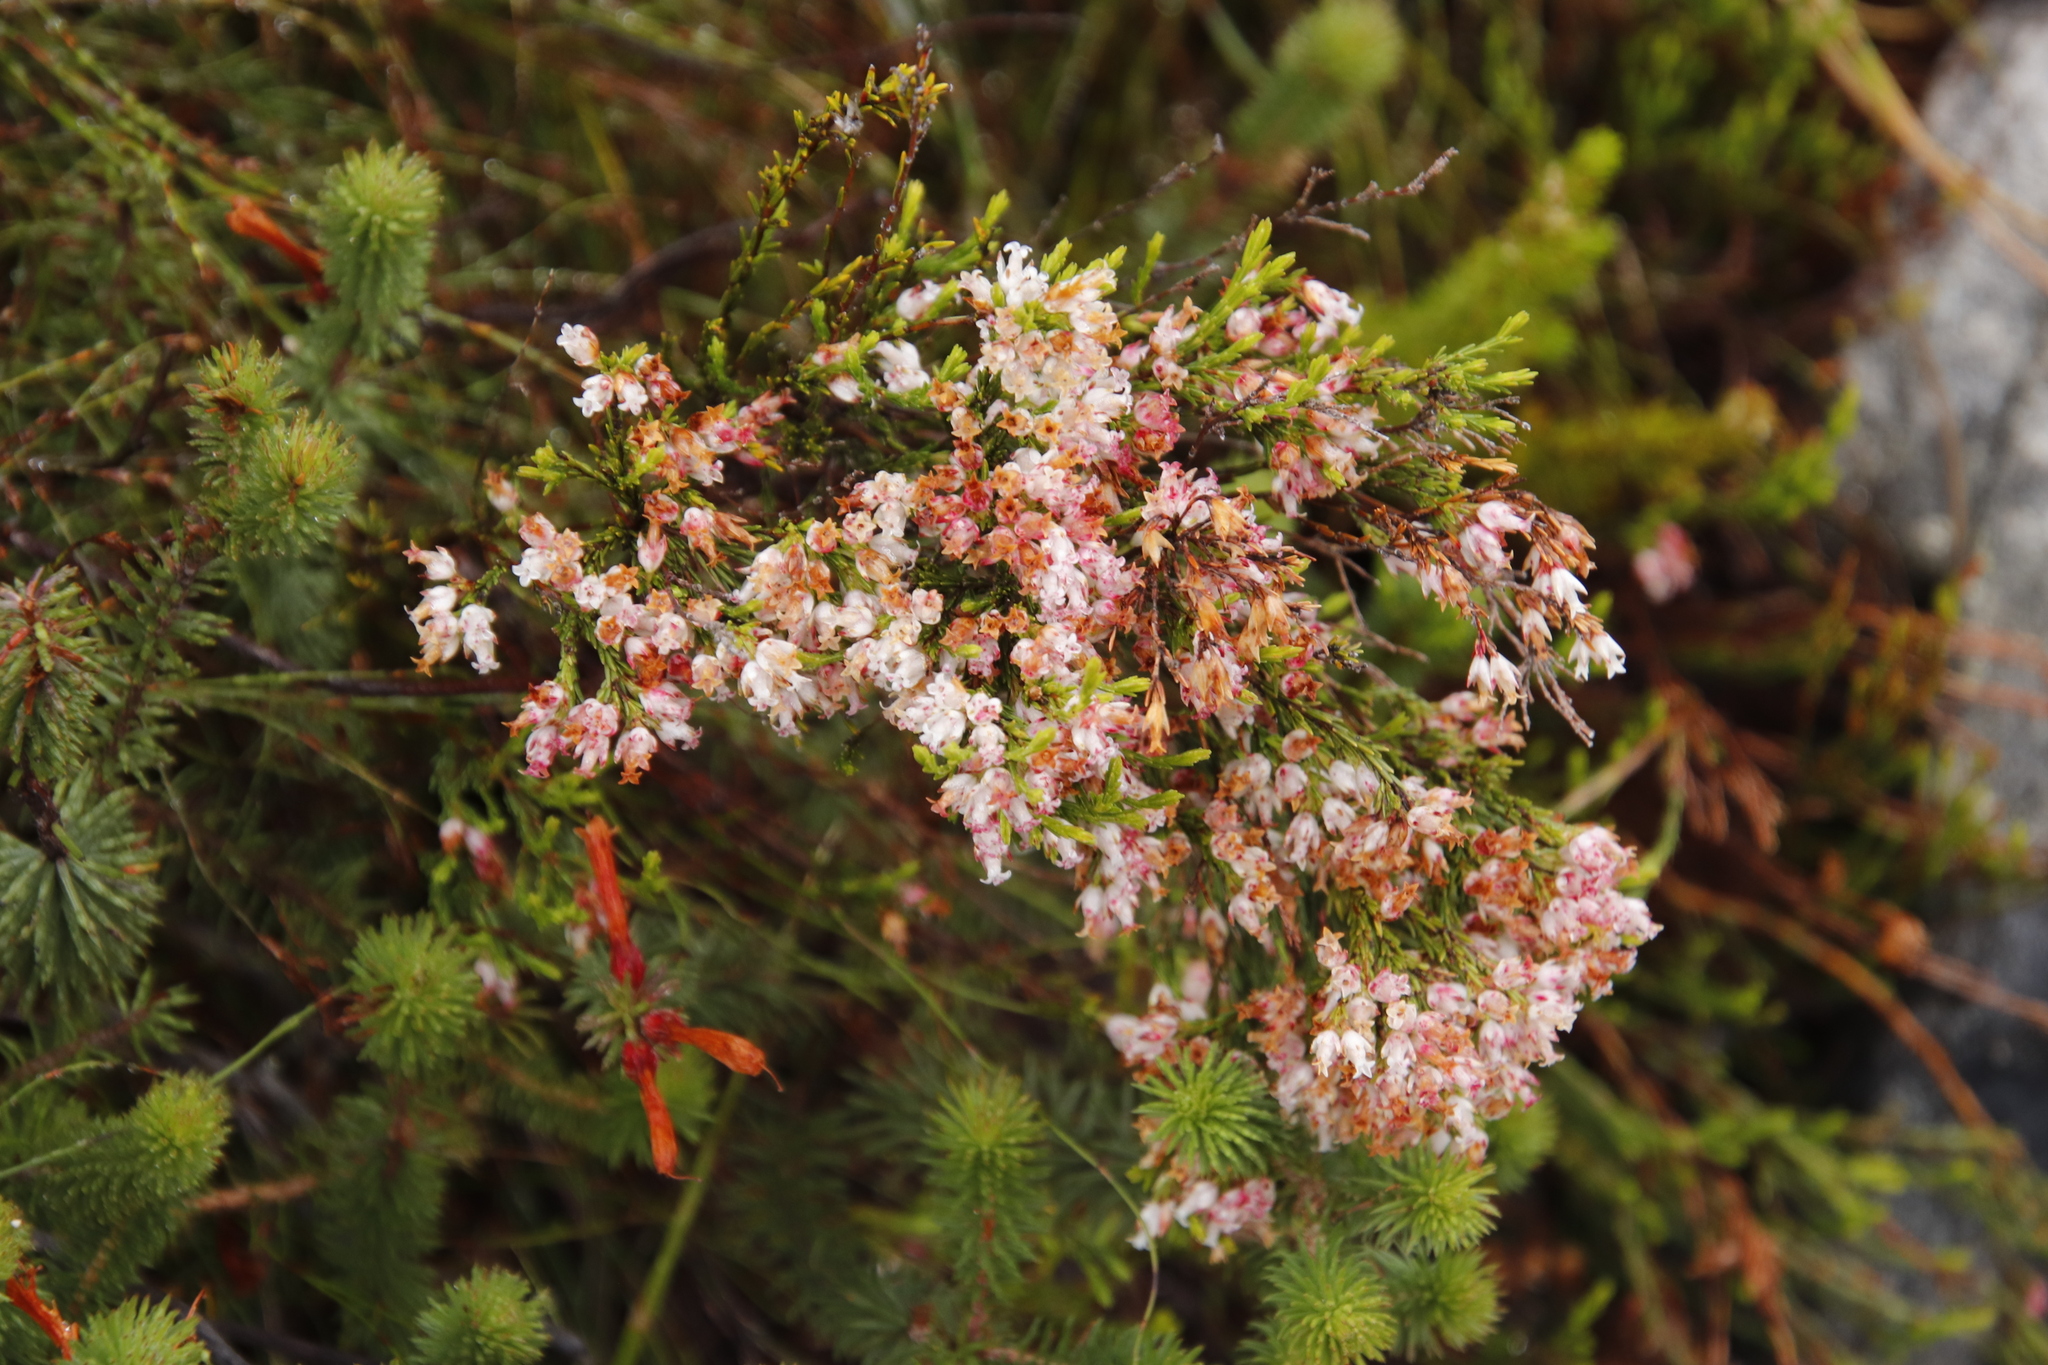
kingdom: Plantae
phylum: Tracheophyta
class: Magnoliopsida
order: Ericales
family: Ericaceae
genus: Erica
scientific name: Erica lutea
